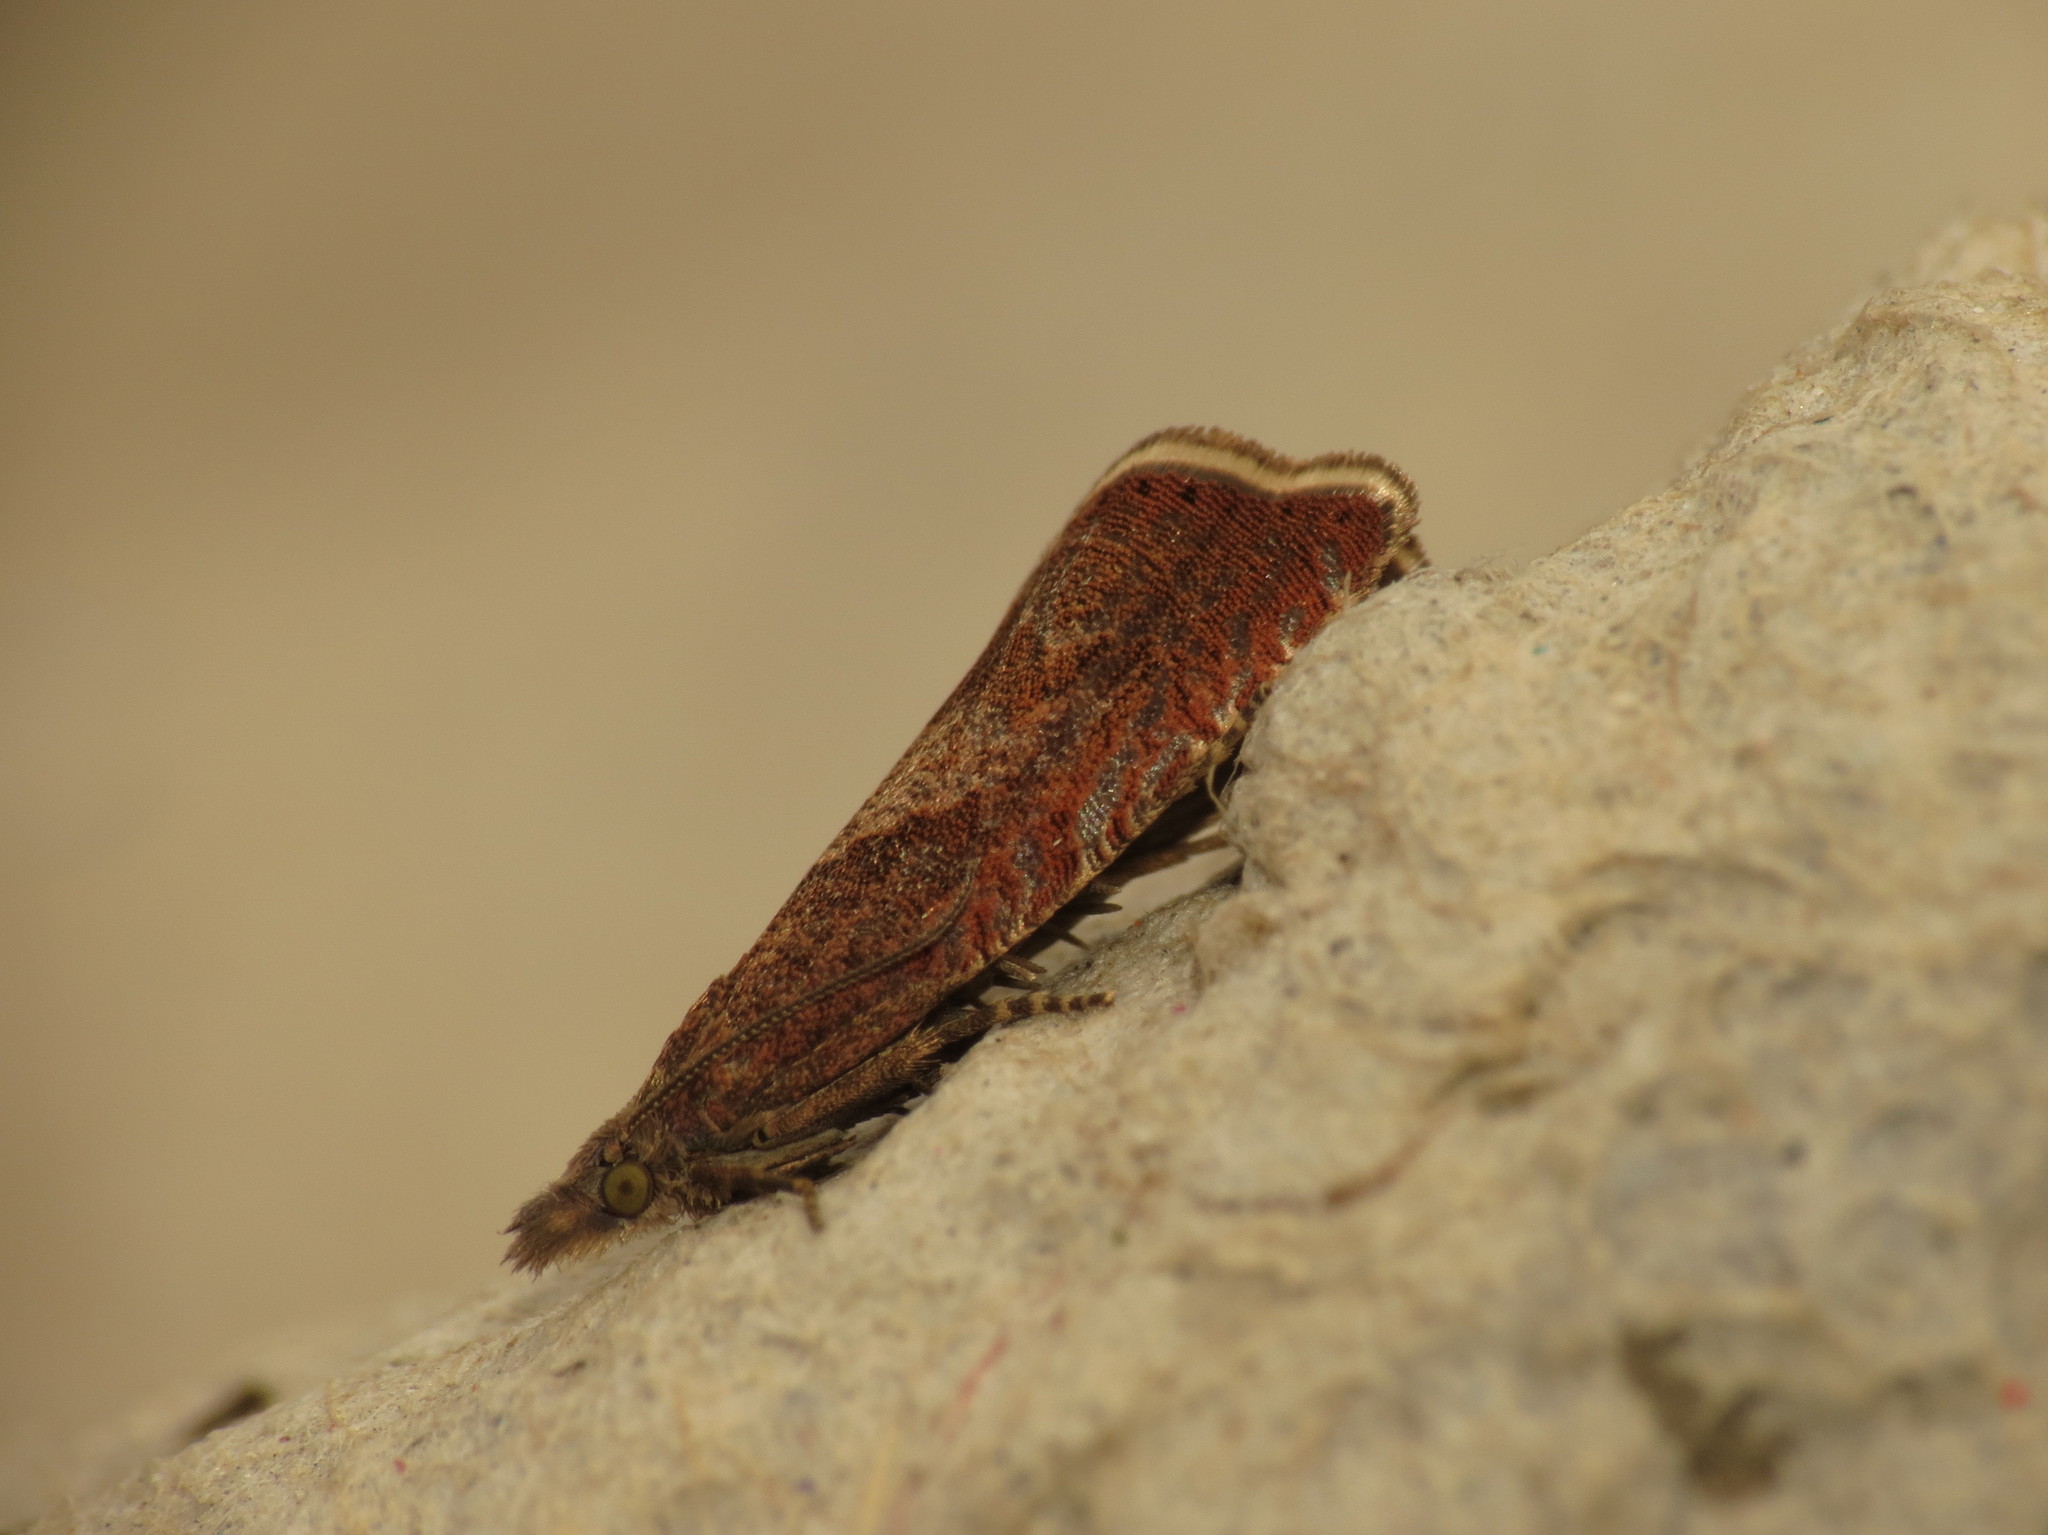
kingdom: Animalia
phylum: Arthropoda
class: Insecta
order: Lepidoptera
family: Tortricidae
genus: Dichrorampha
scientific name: Dichrorampha acuminatana
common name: Sharp-winged drill
